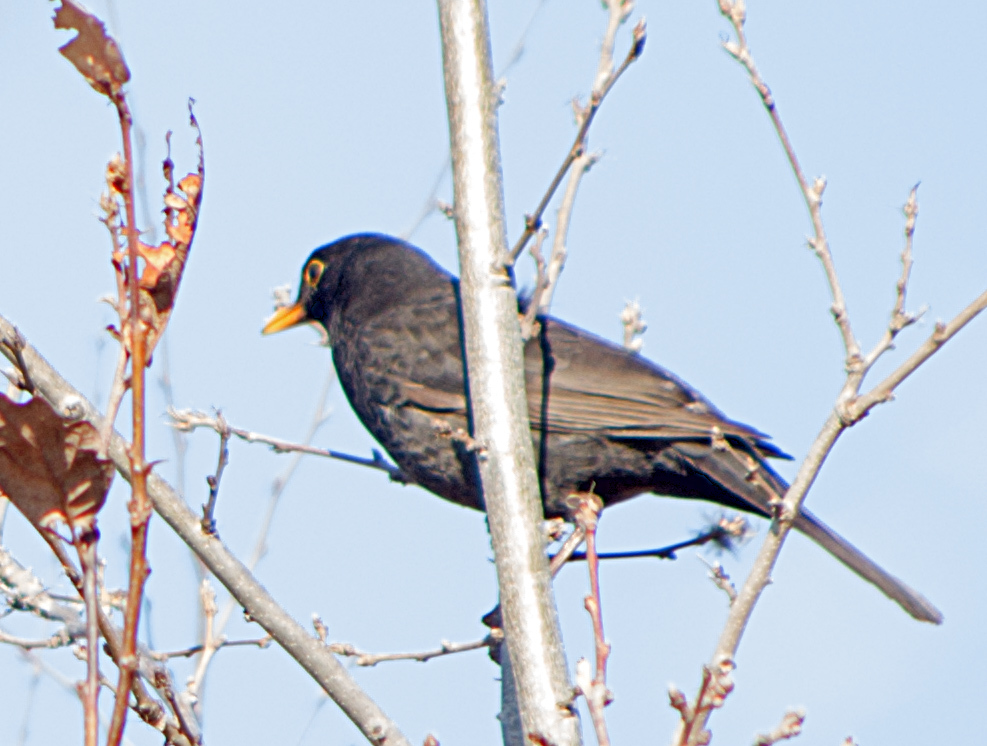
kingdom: Animalia
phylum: Chordata
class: Aves
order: Passeriformes
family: Turdidae
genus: Turdus
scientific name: Turdus merula
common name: Common blackbird
